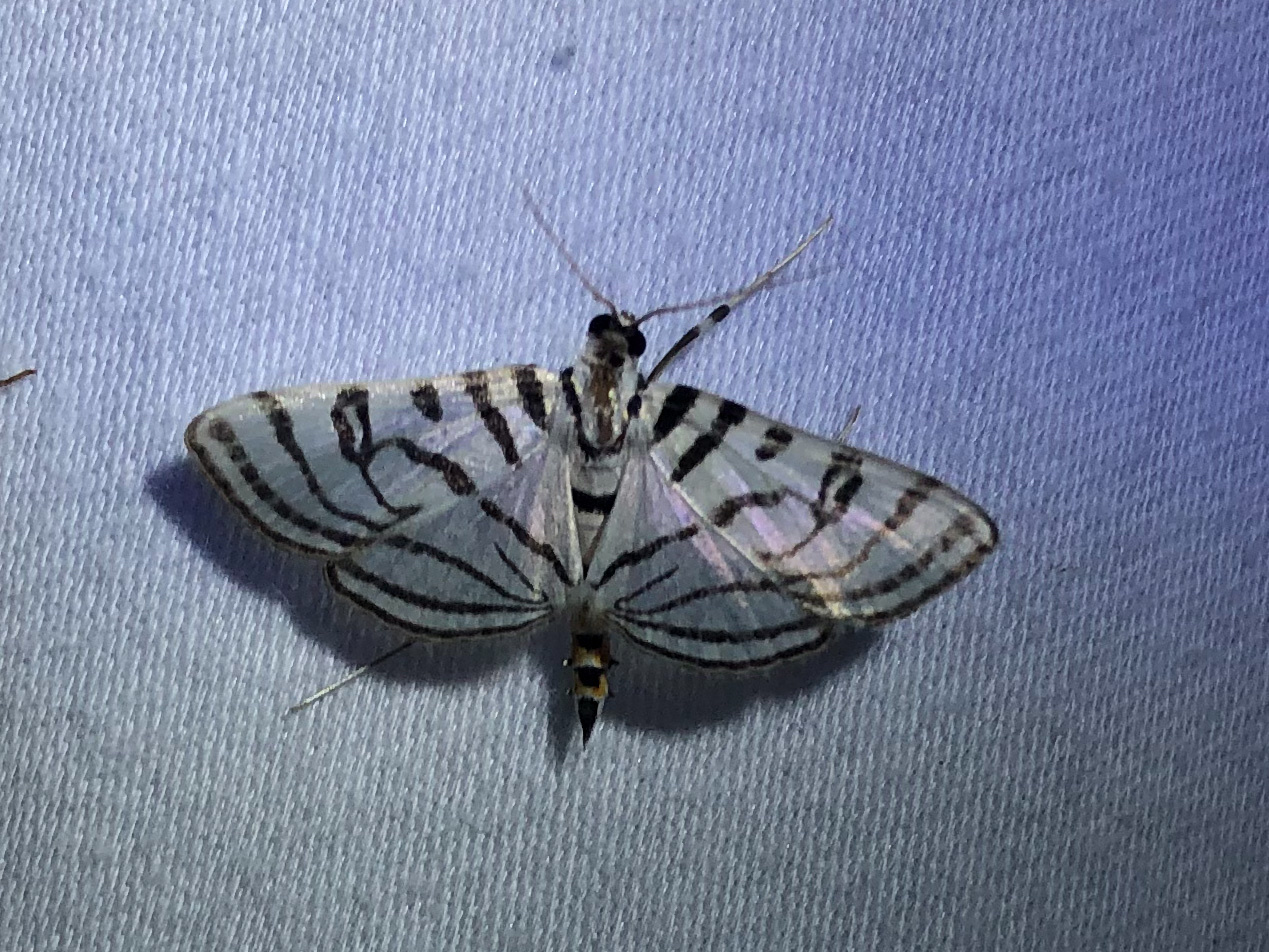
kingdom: Animalia
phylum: Arthropoda
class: Insecta
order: Lepidoptera
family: Crambidae
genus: Conchylodes
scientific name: Conchylodes ovulalis
